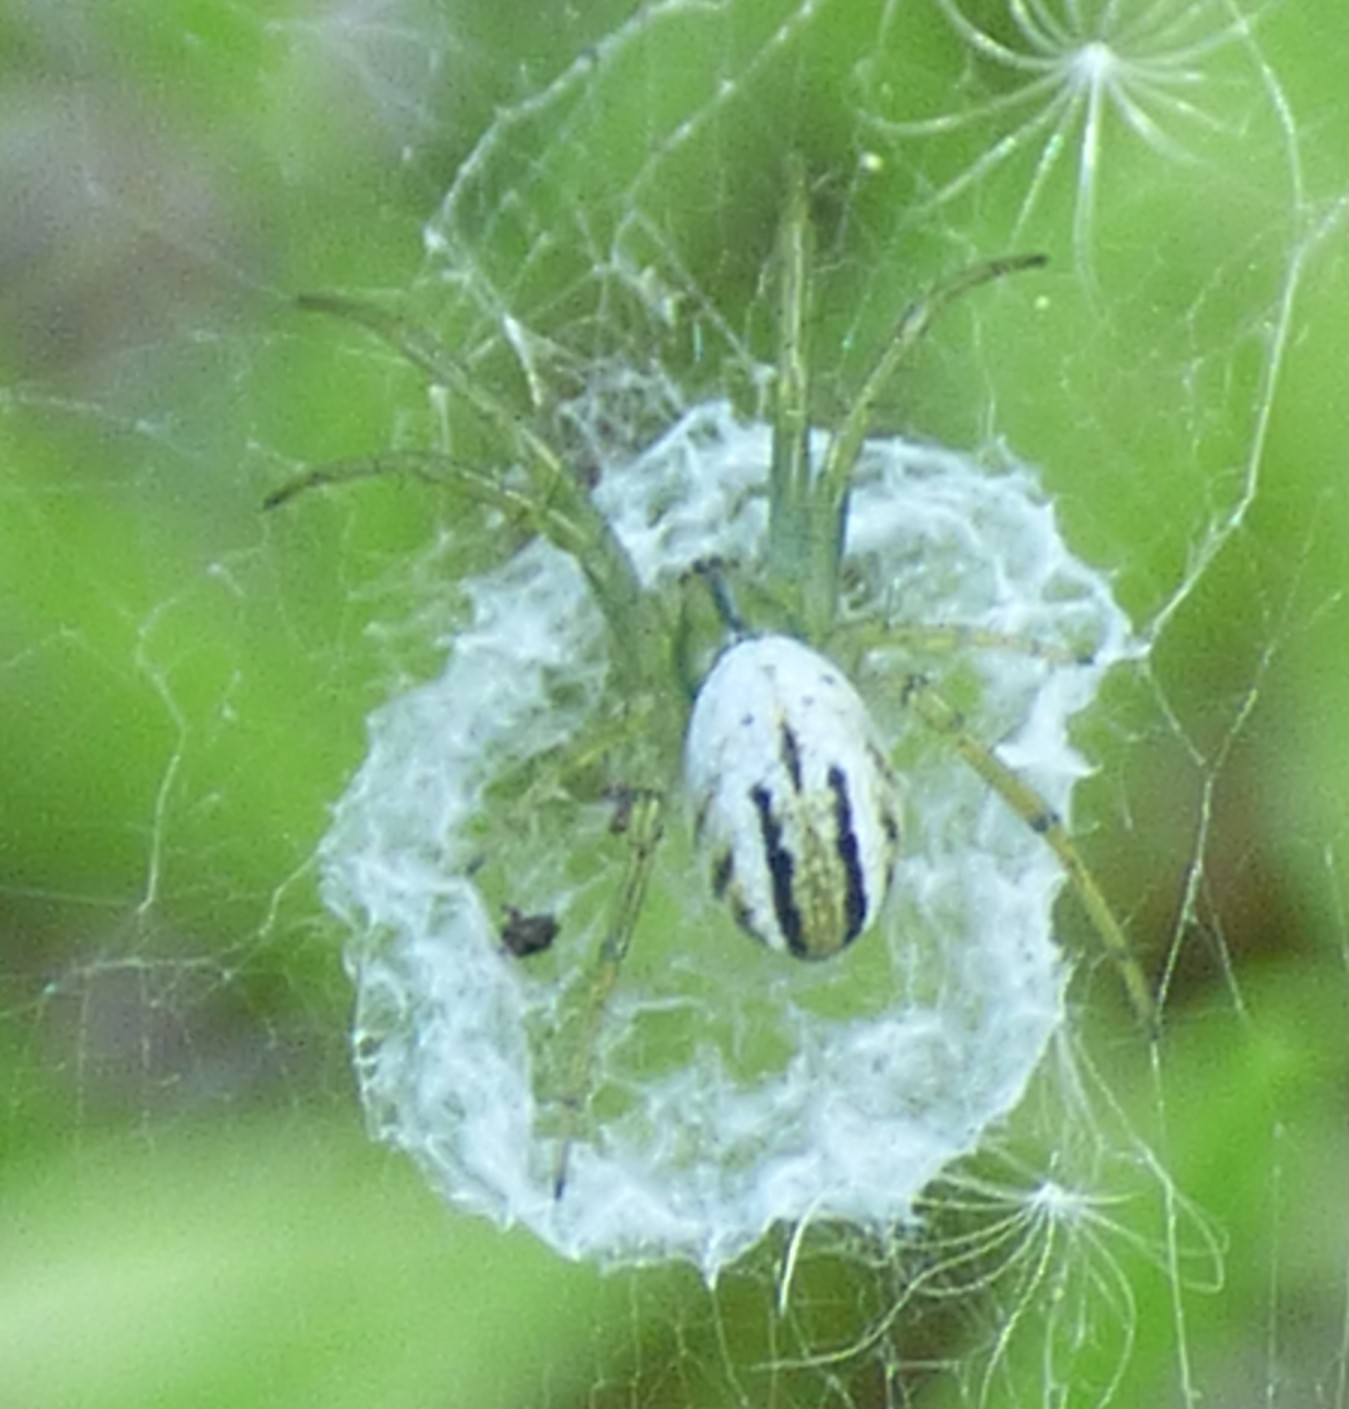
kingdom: Animalia
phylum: Arthropoda
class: Arachnida
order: Araneae
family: Araneidae
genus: Mangora
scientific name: Mangora gibberosa
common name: Lined orbweaver
